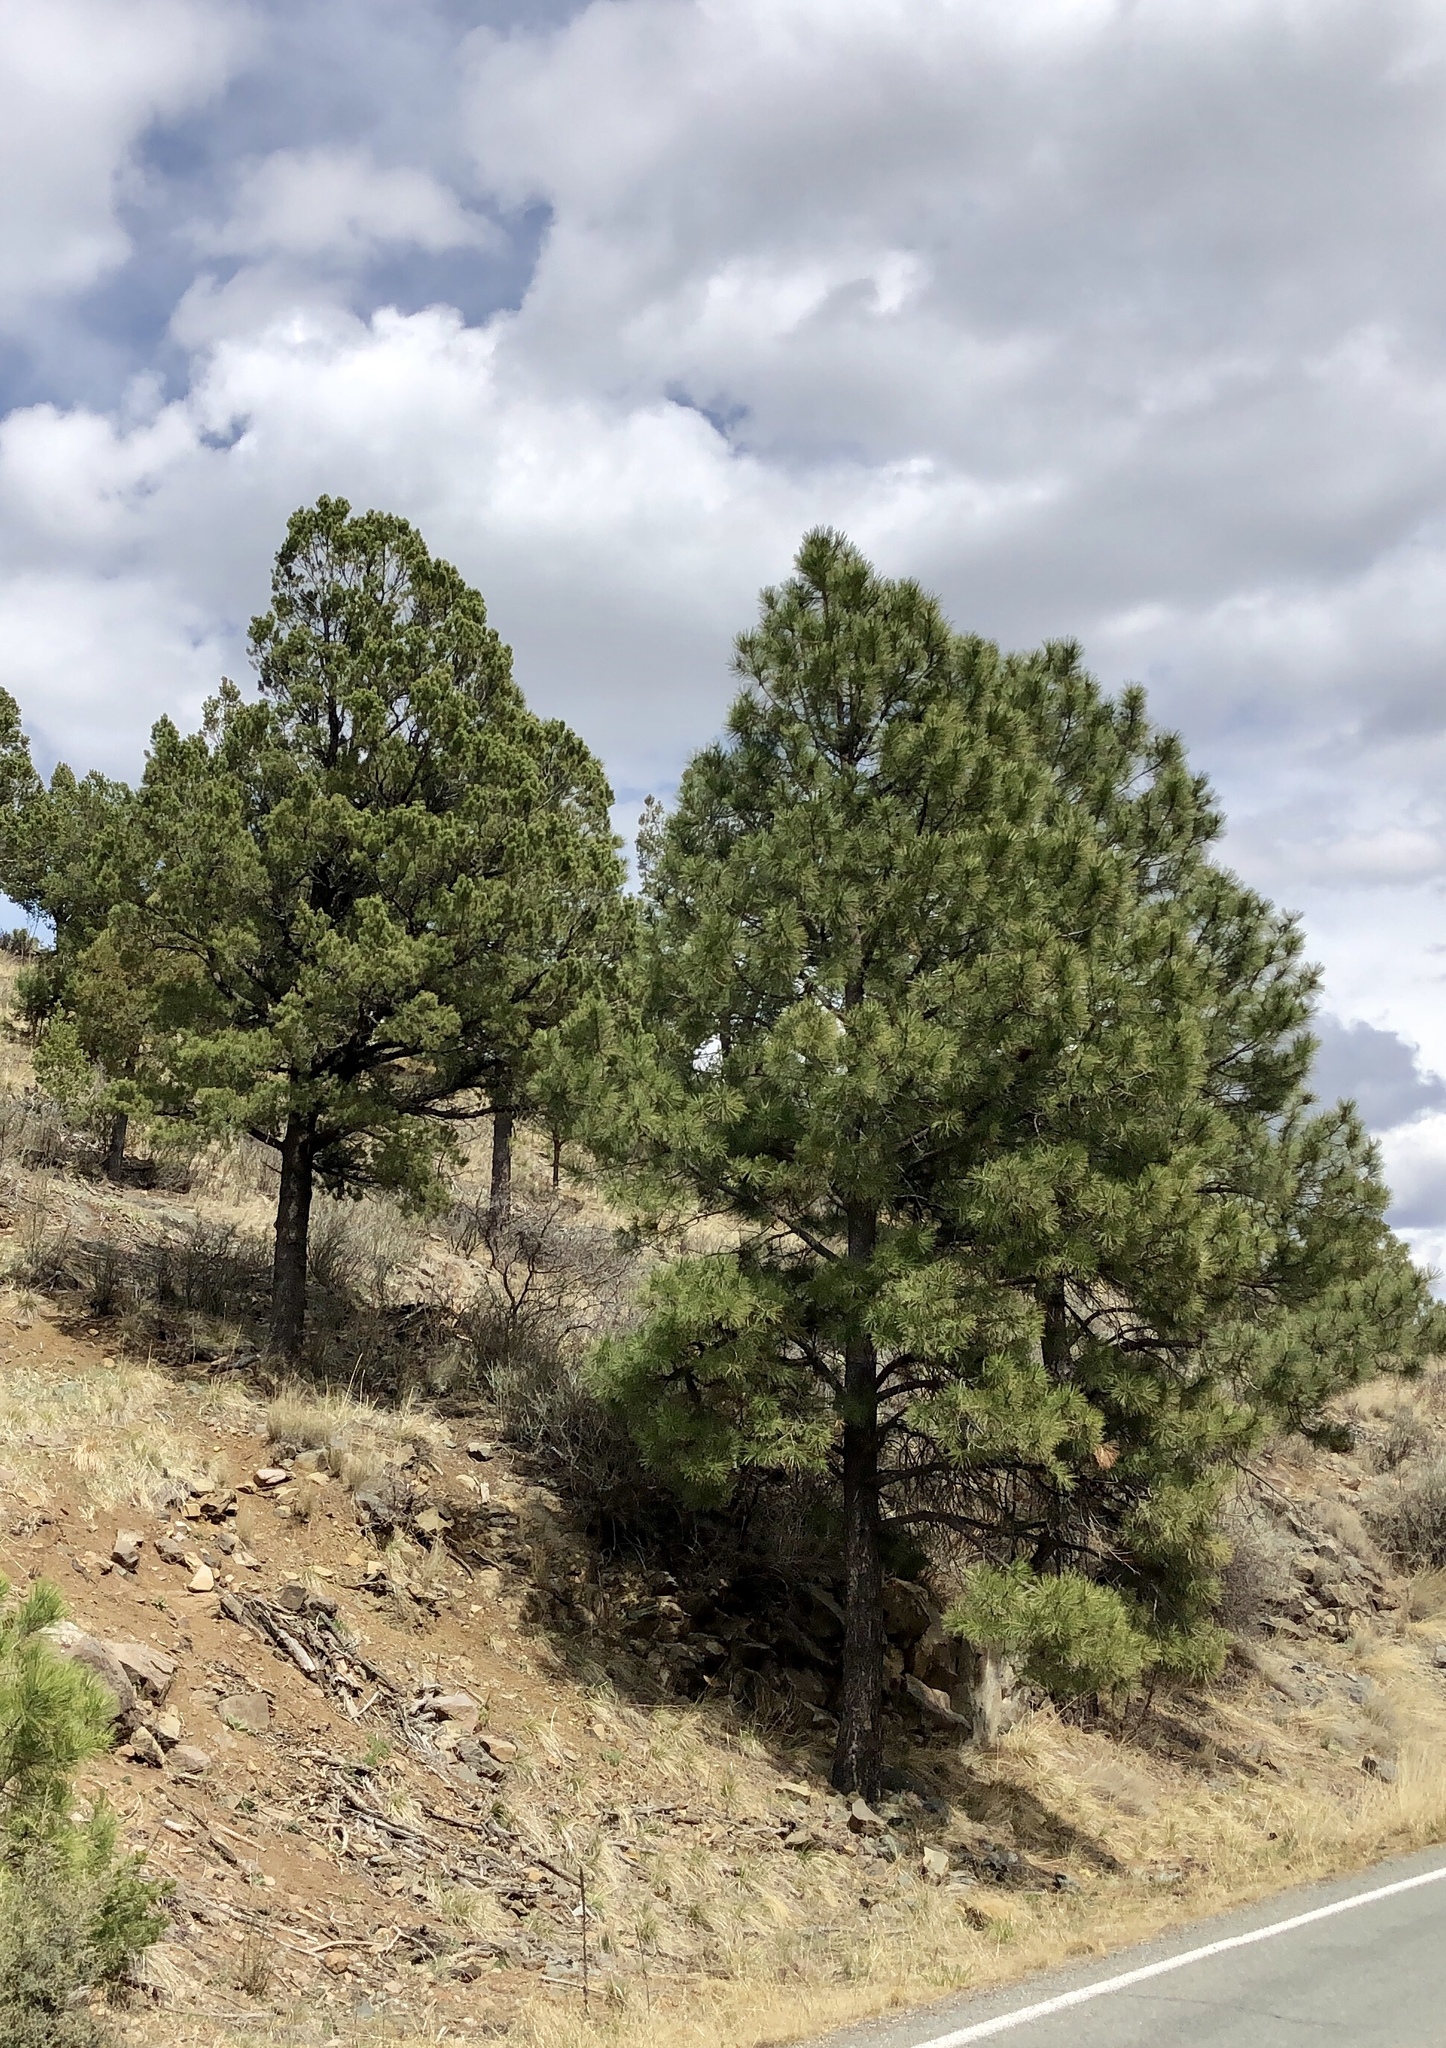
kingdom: Plantae
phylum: Tracheophyta
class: Pinopsida
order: Pinales
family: Pinaceae
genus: Pinus
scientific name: Pinus ponderosa
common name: Western yellow-pine
